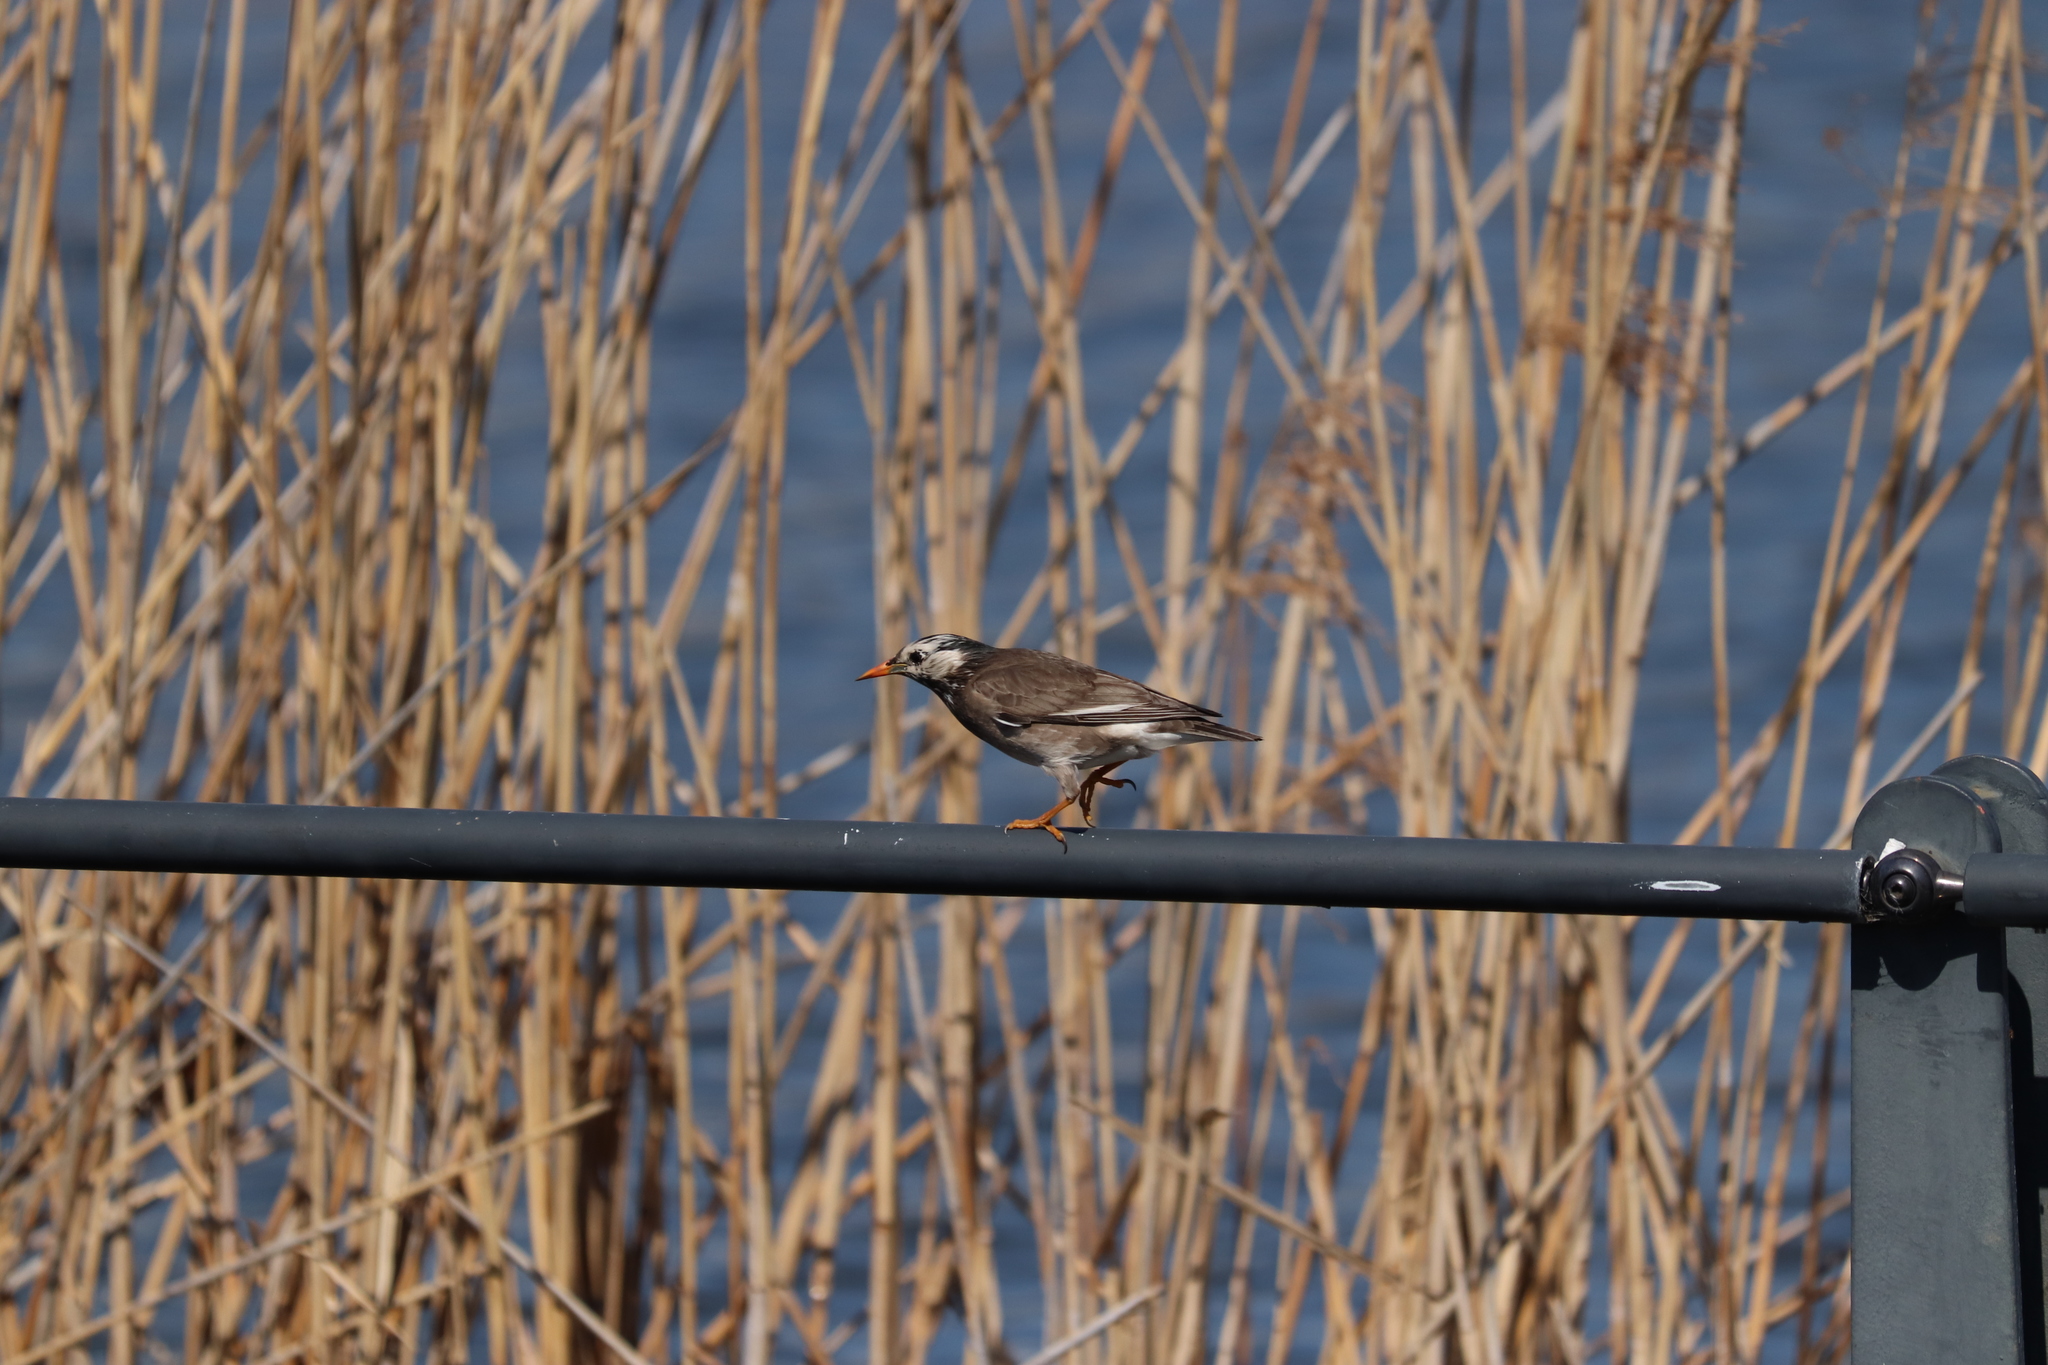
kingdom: Animalia
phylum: Chordata
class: Aves
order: Passeriformes
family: Sturnidae
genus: Spodiopsar
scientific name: Spodiopsar cineraceus
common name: White-cheeked starling
